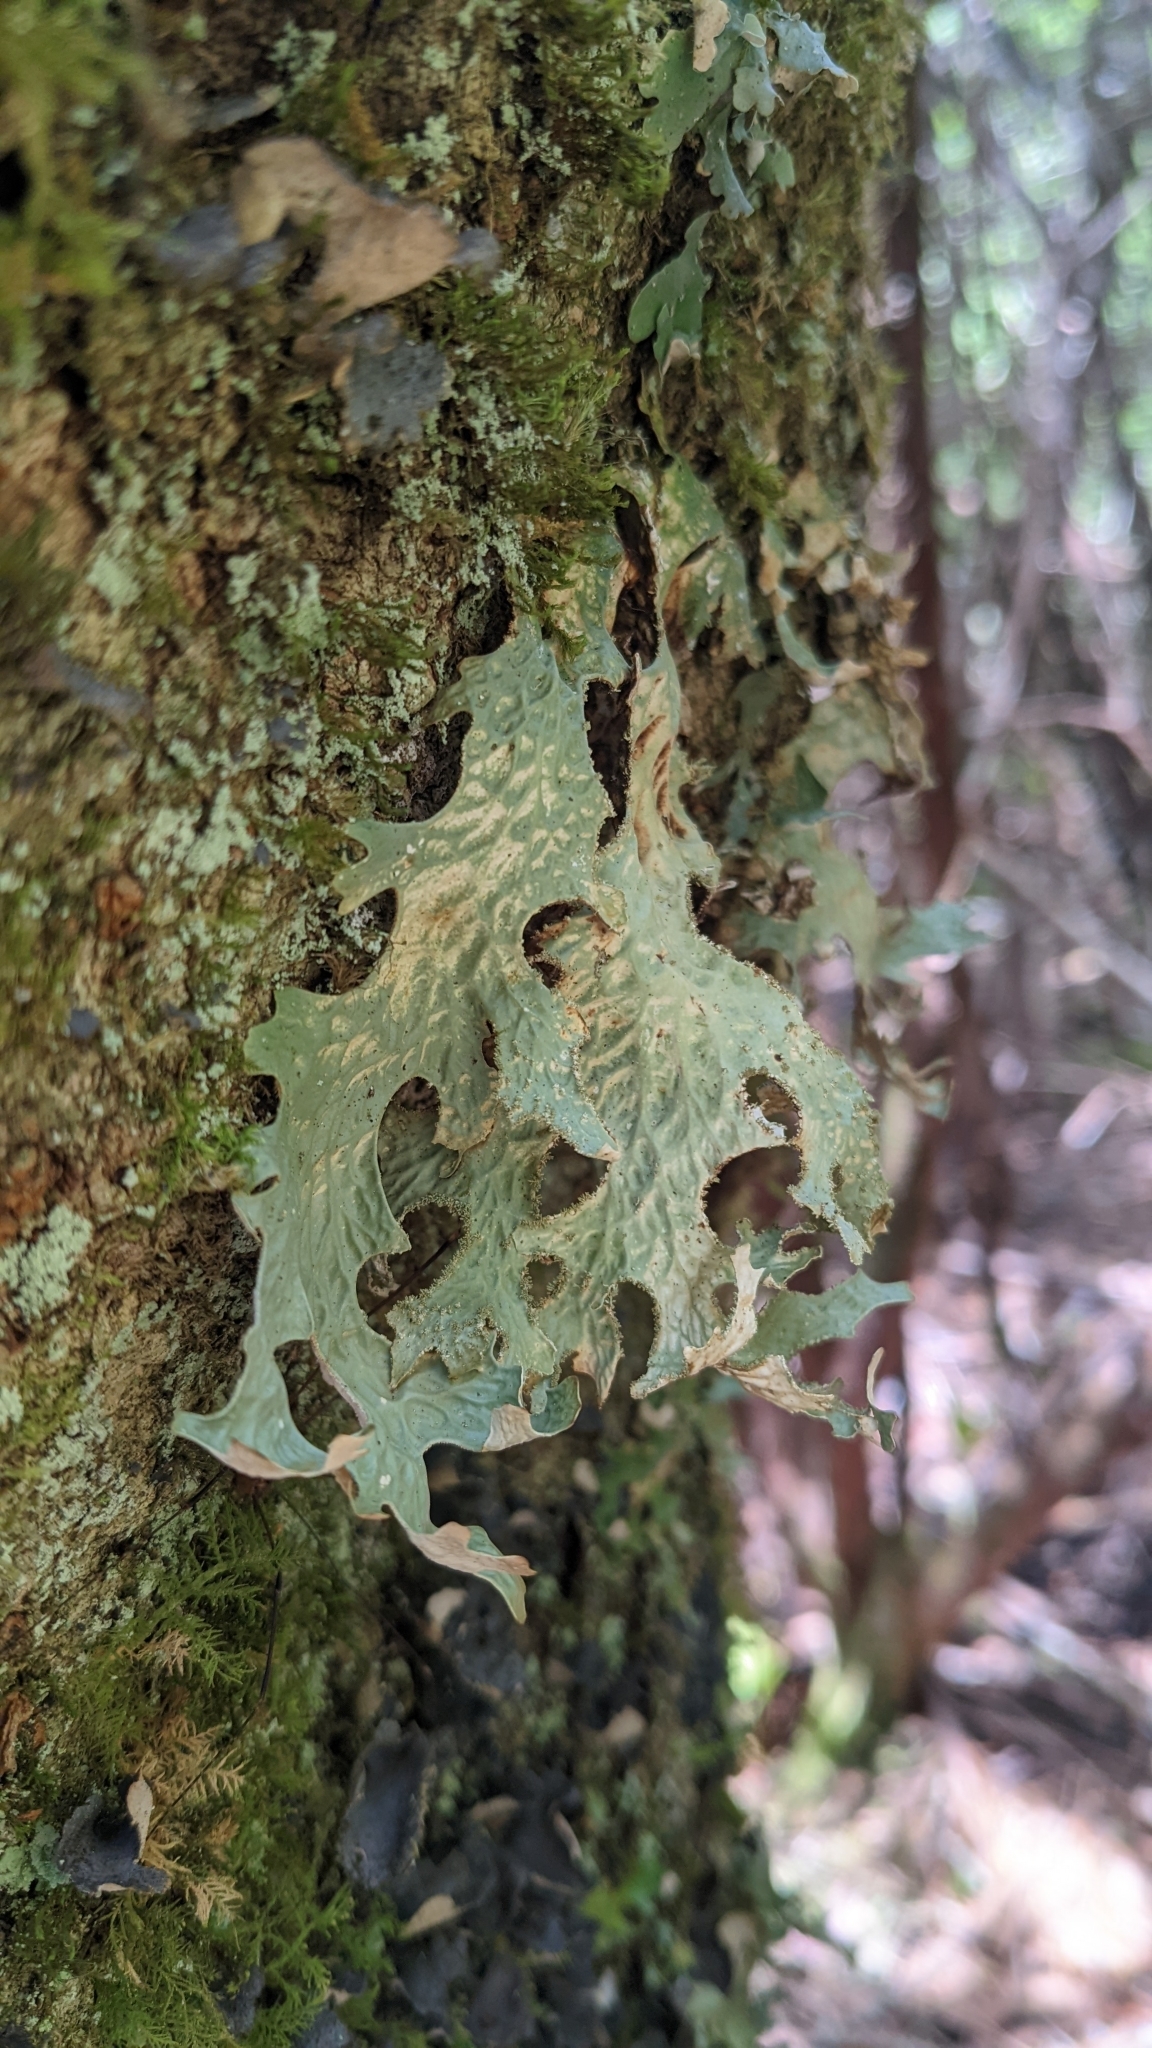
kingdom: Fungi
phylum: Ascomycota
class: Lecanoromycetes
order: Peltigerales
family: Lobariaceae
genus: Lobaria
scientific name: Lobaria pulmonaria
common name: Lungwort
